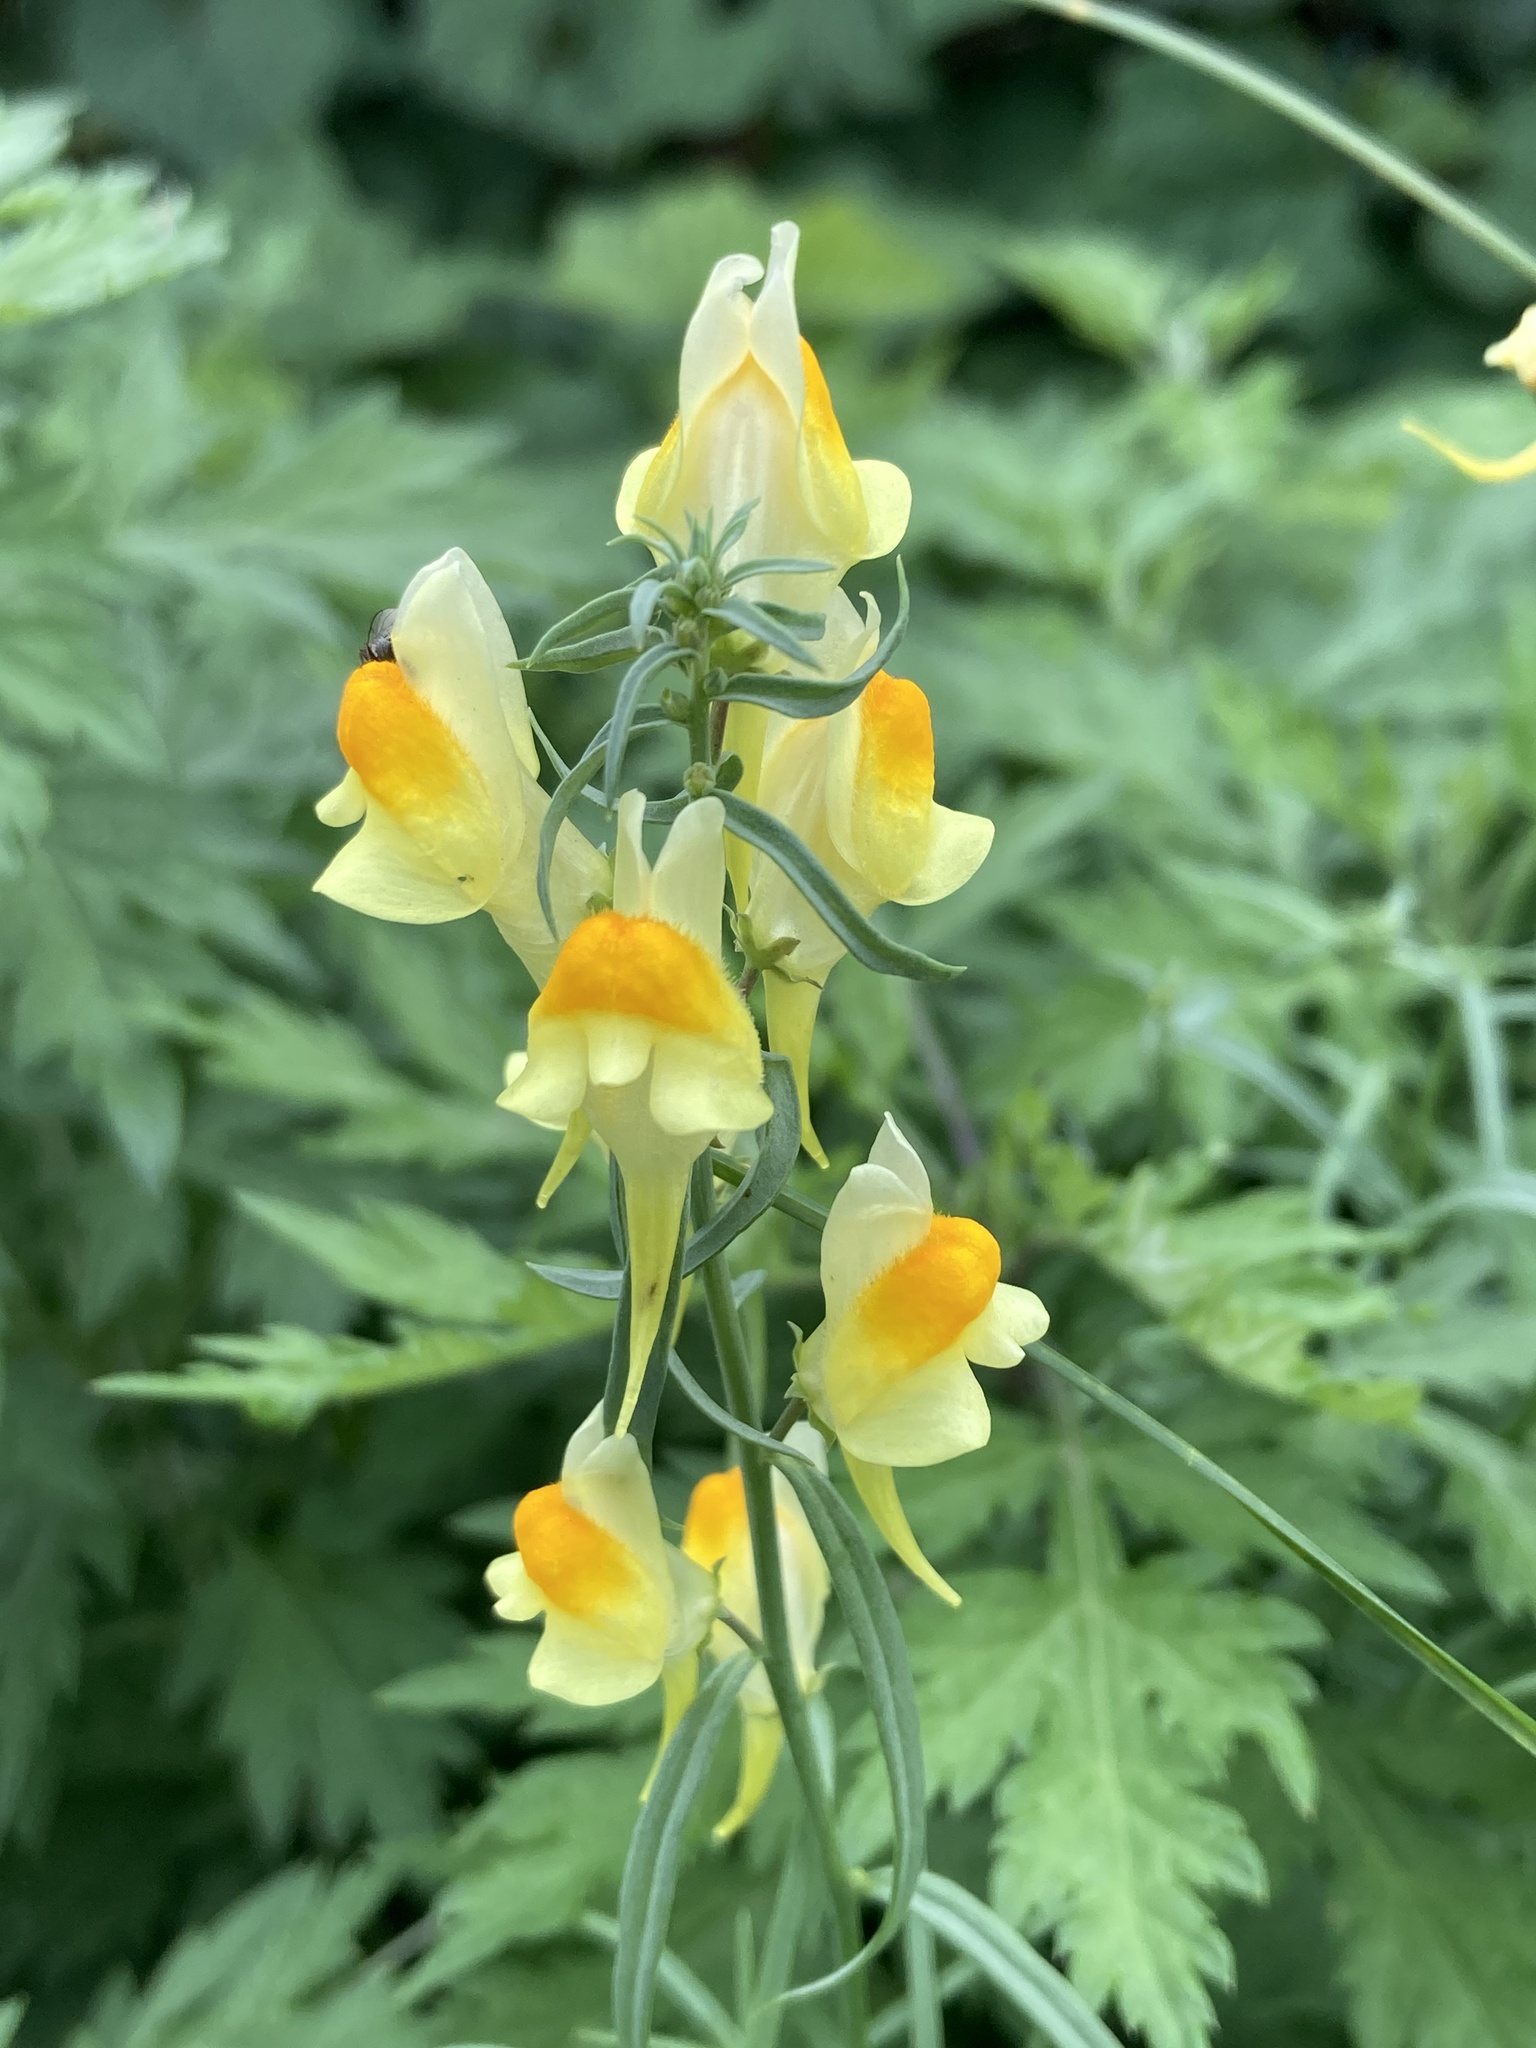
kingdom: Plantae
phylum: Tracheophyta
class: Magnoliopsida
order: Lamiales
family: Plantaginaceae
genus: Linaria
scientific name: Linaria vulgaris
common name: Butter and eggs
